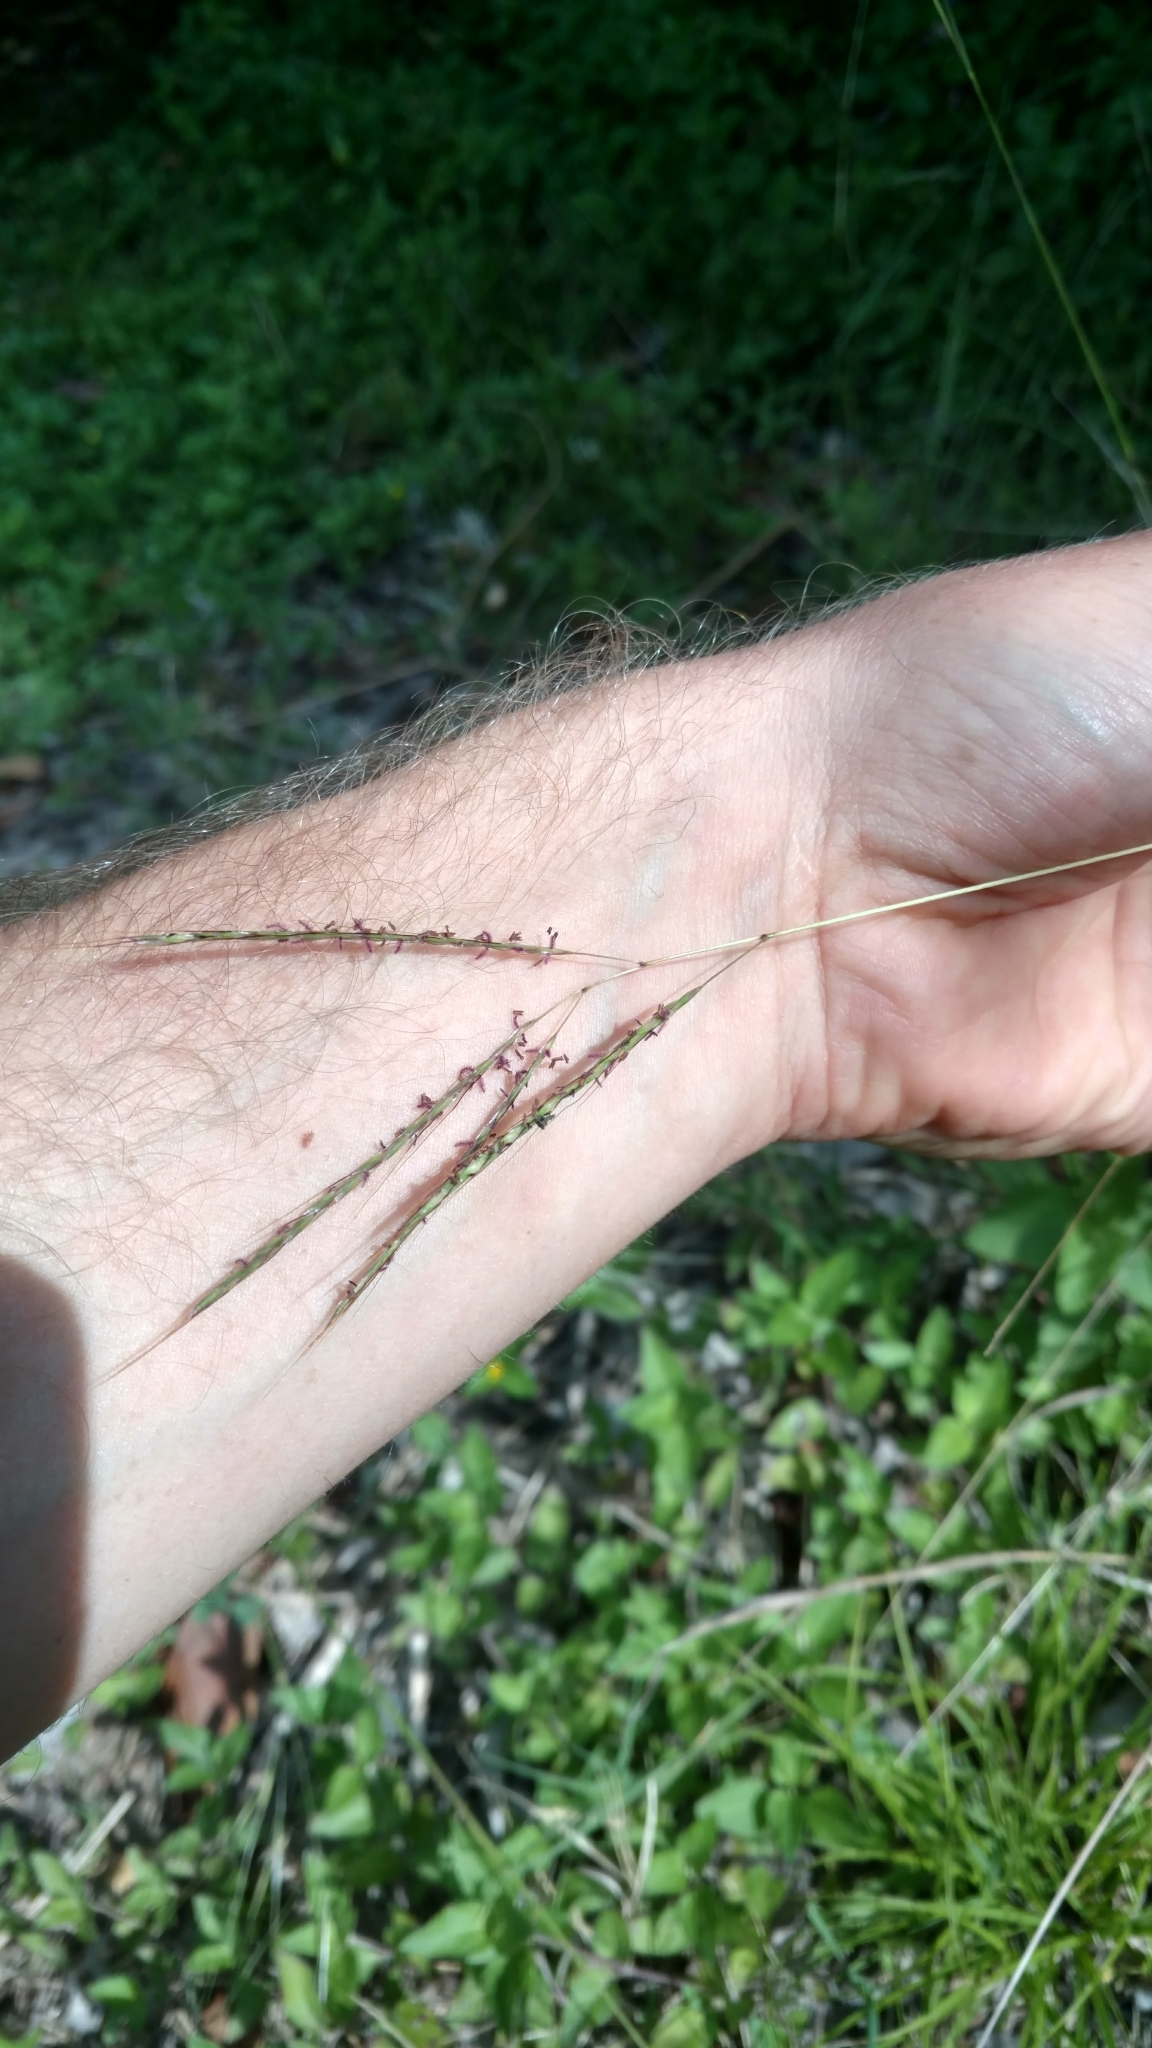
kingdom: Plantae
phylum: Tracheophyta
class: Liliopsida
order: Poales
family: Poaceae
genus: Bothriochloa
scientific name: Bothriochloa ischaemum
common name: Yellow bluestem
